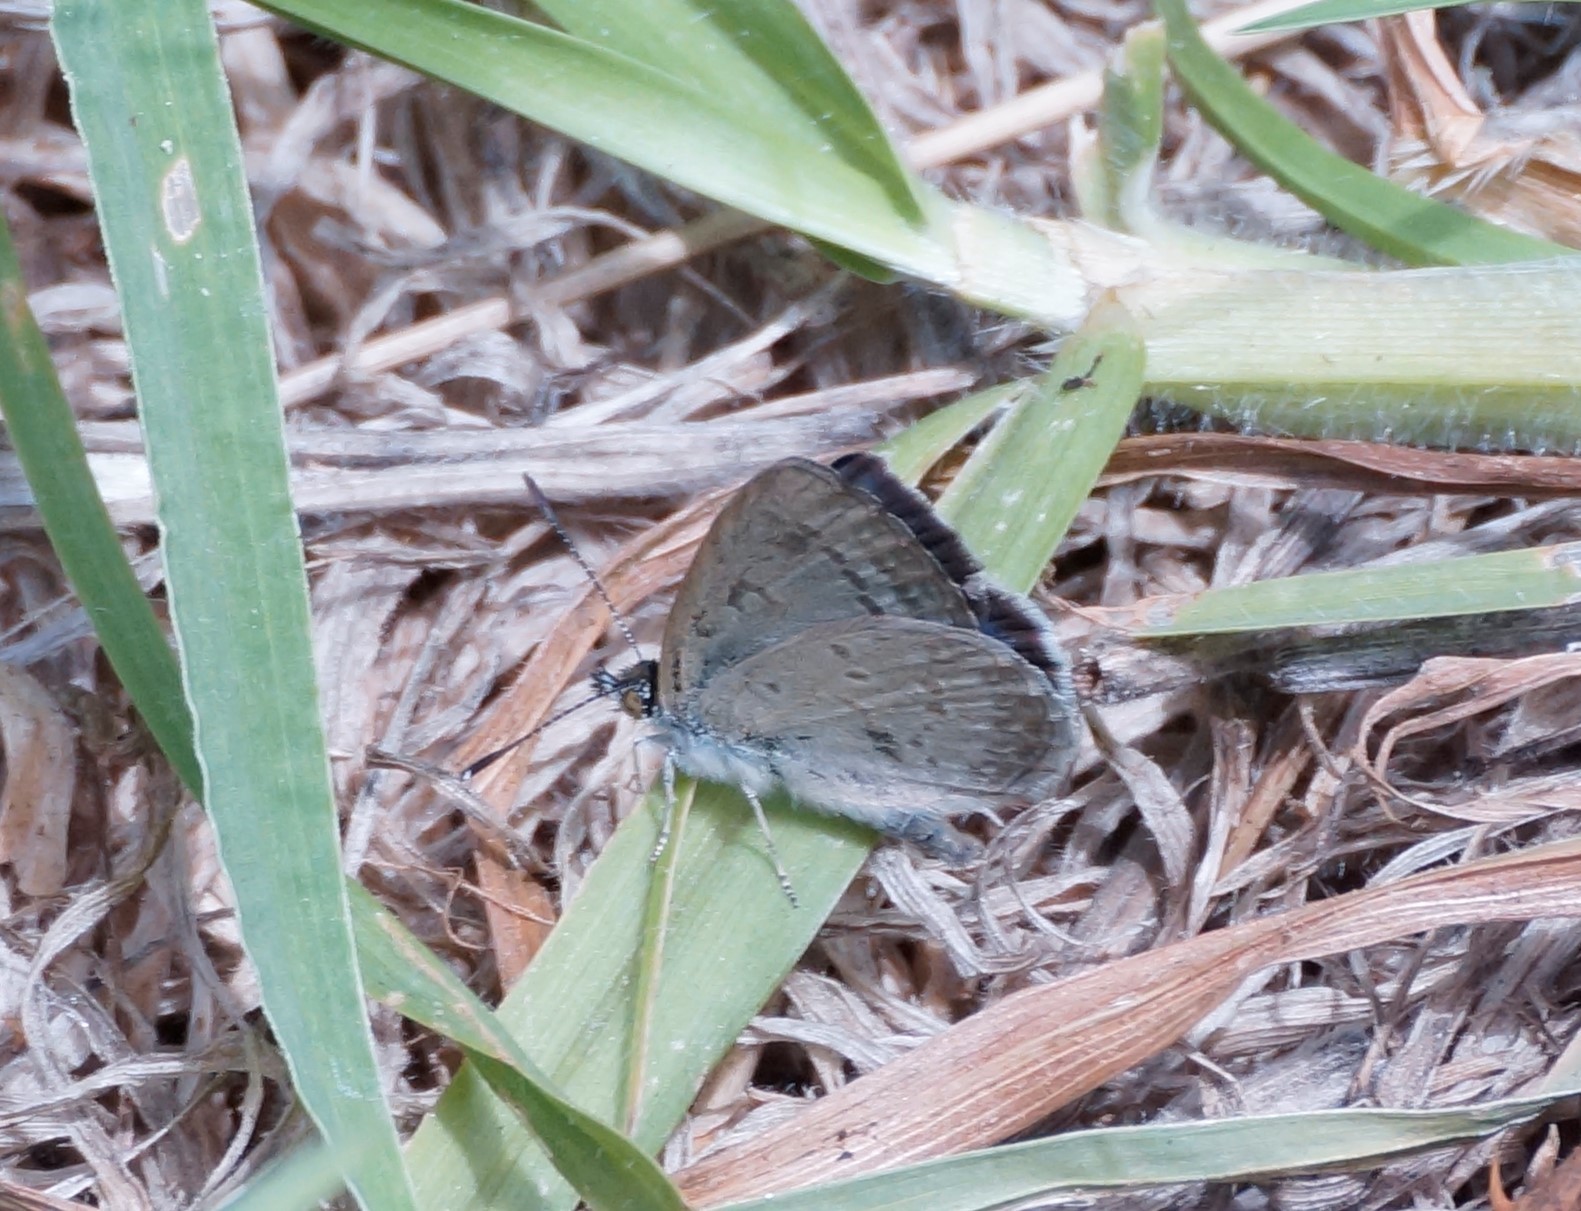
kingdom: Animalia
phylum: Arthropoda
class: Insecta
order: Lepidoptera
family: Lycaenidae
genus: Zizina
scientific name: Zizina labradus
